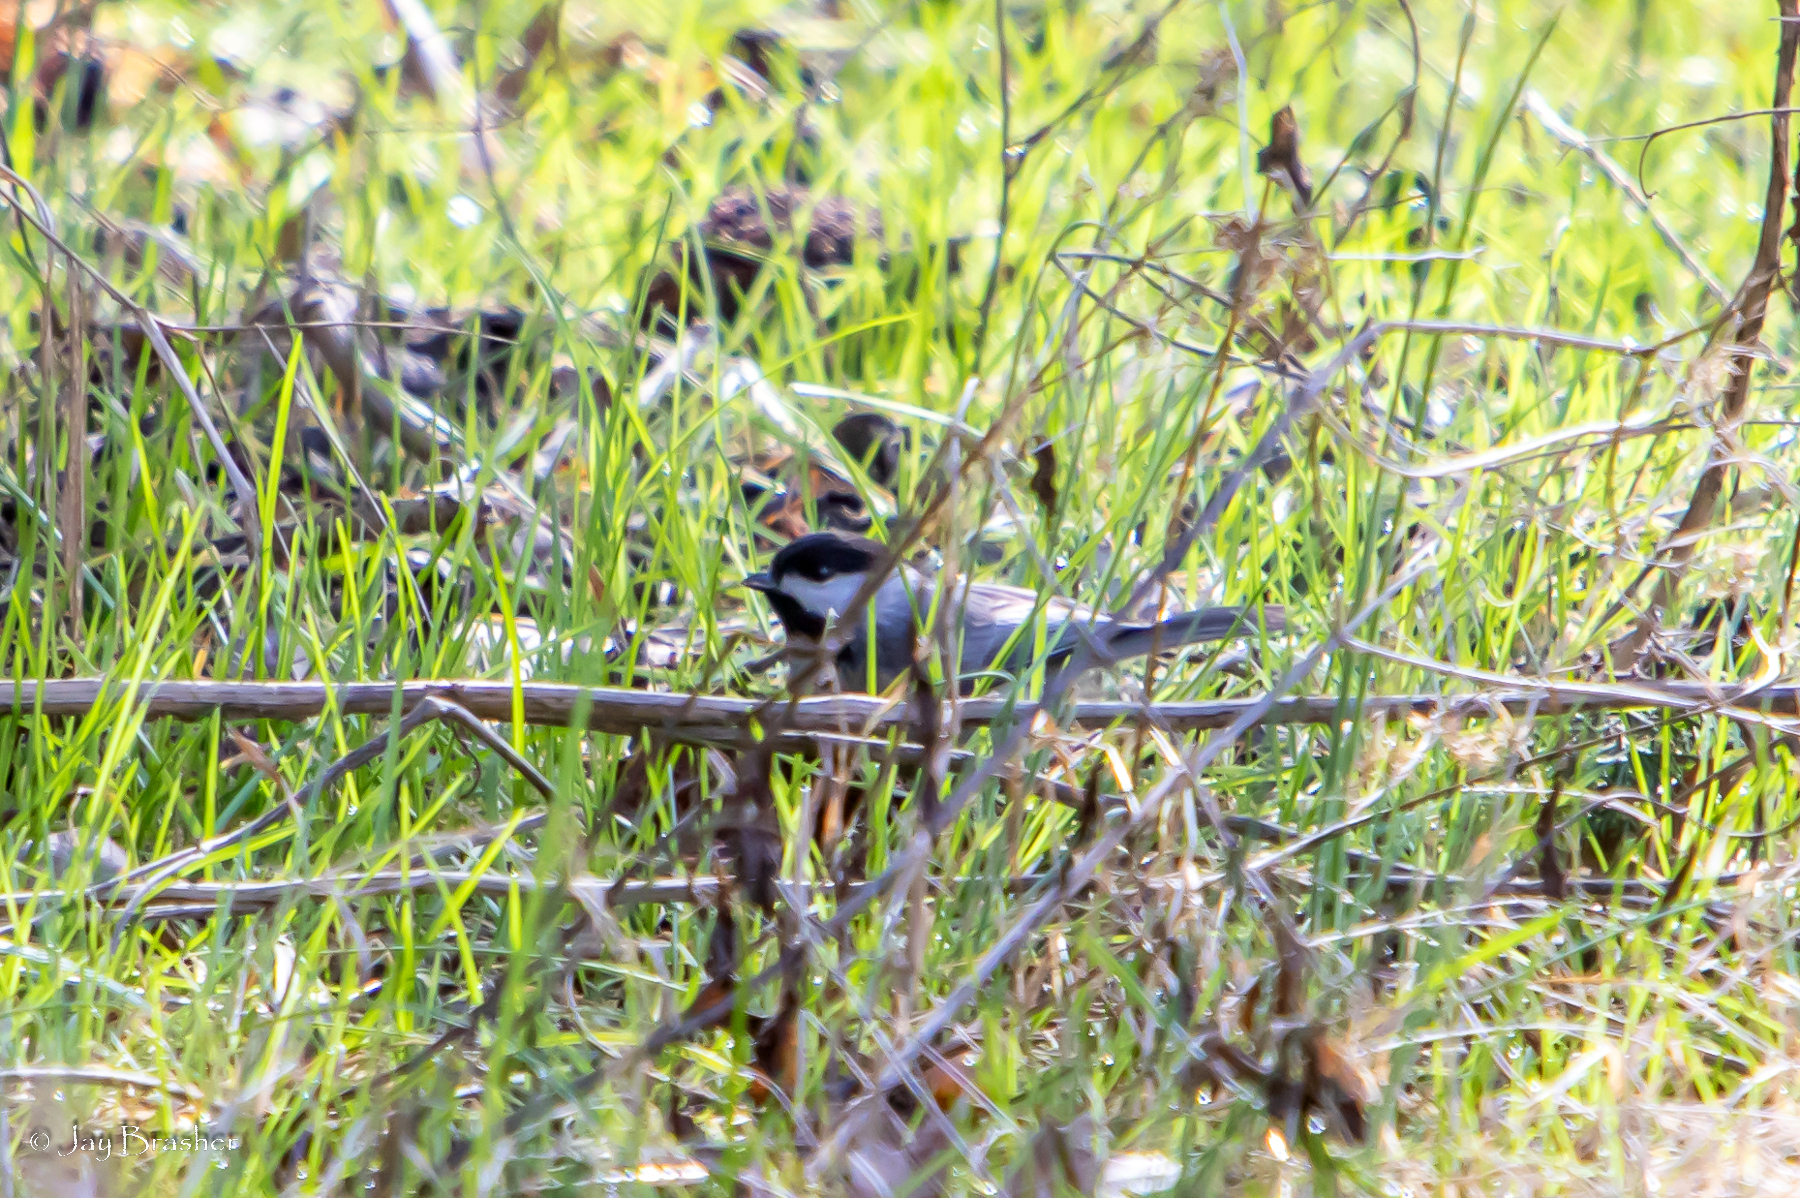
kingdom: Animalia
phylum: Chordata
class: Aves
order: Passeriformes
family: Paridae
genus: Poecile
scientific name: Poecile carolinensis
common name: Carolina chickadee
